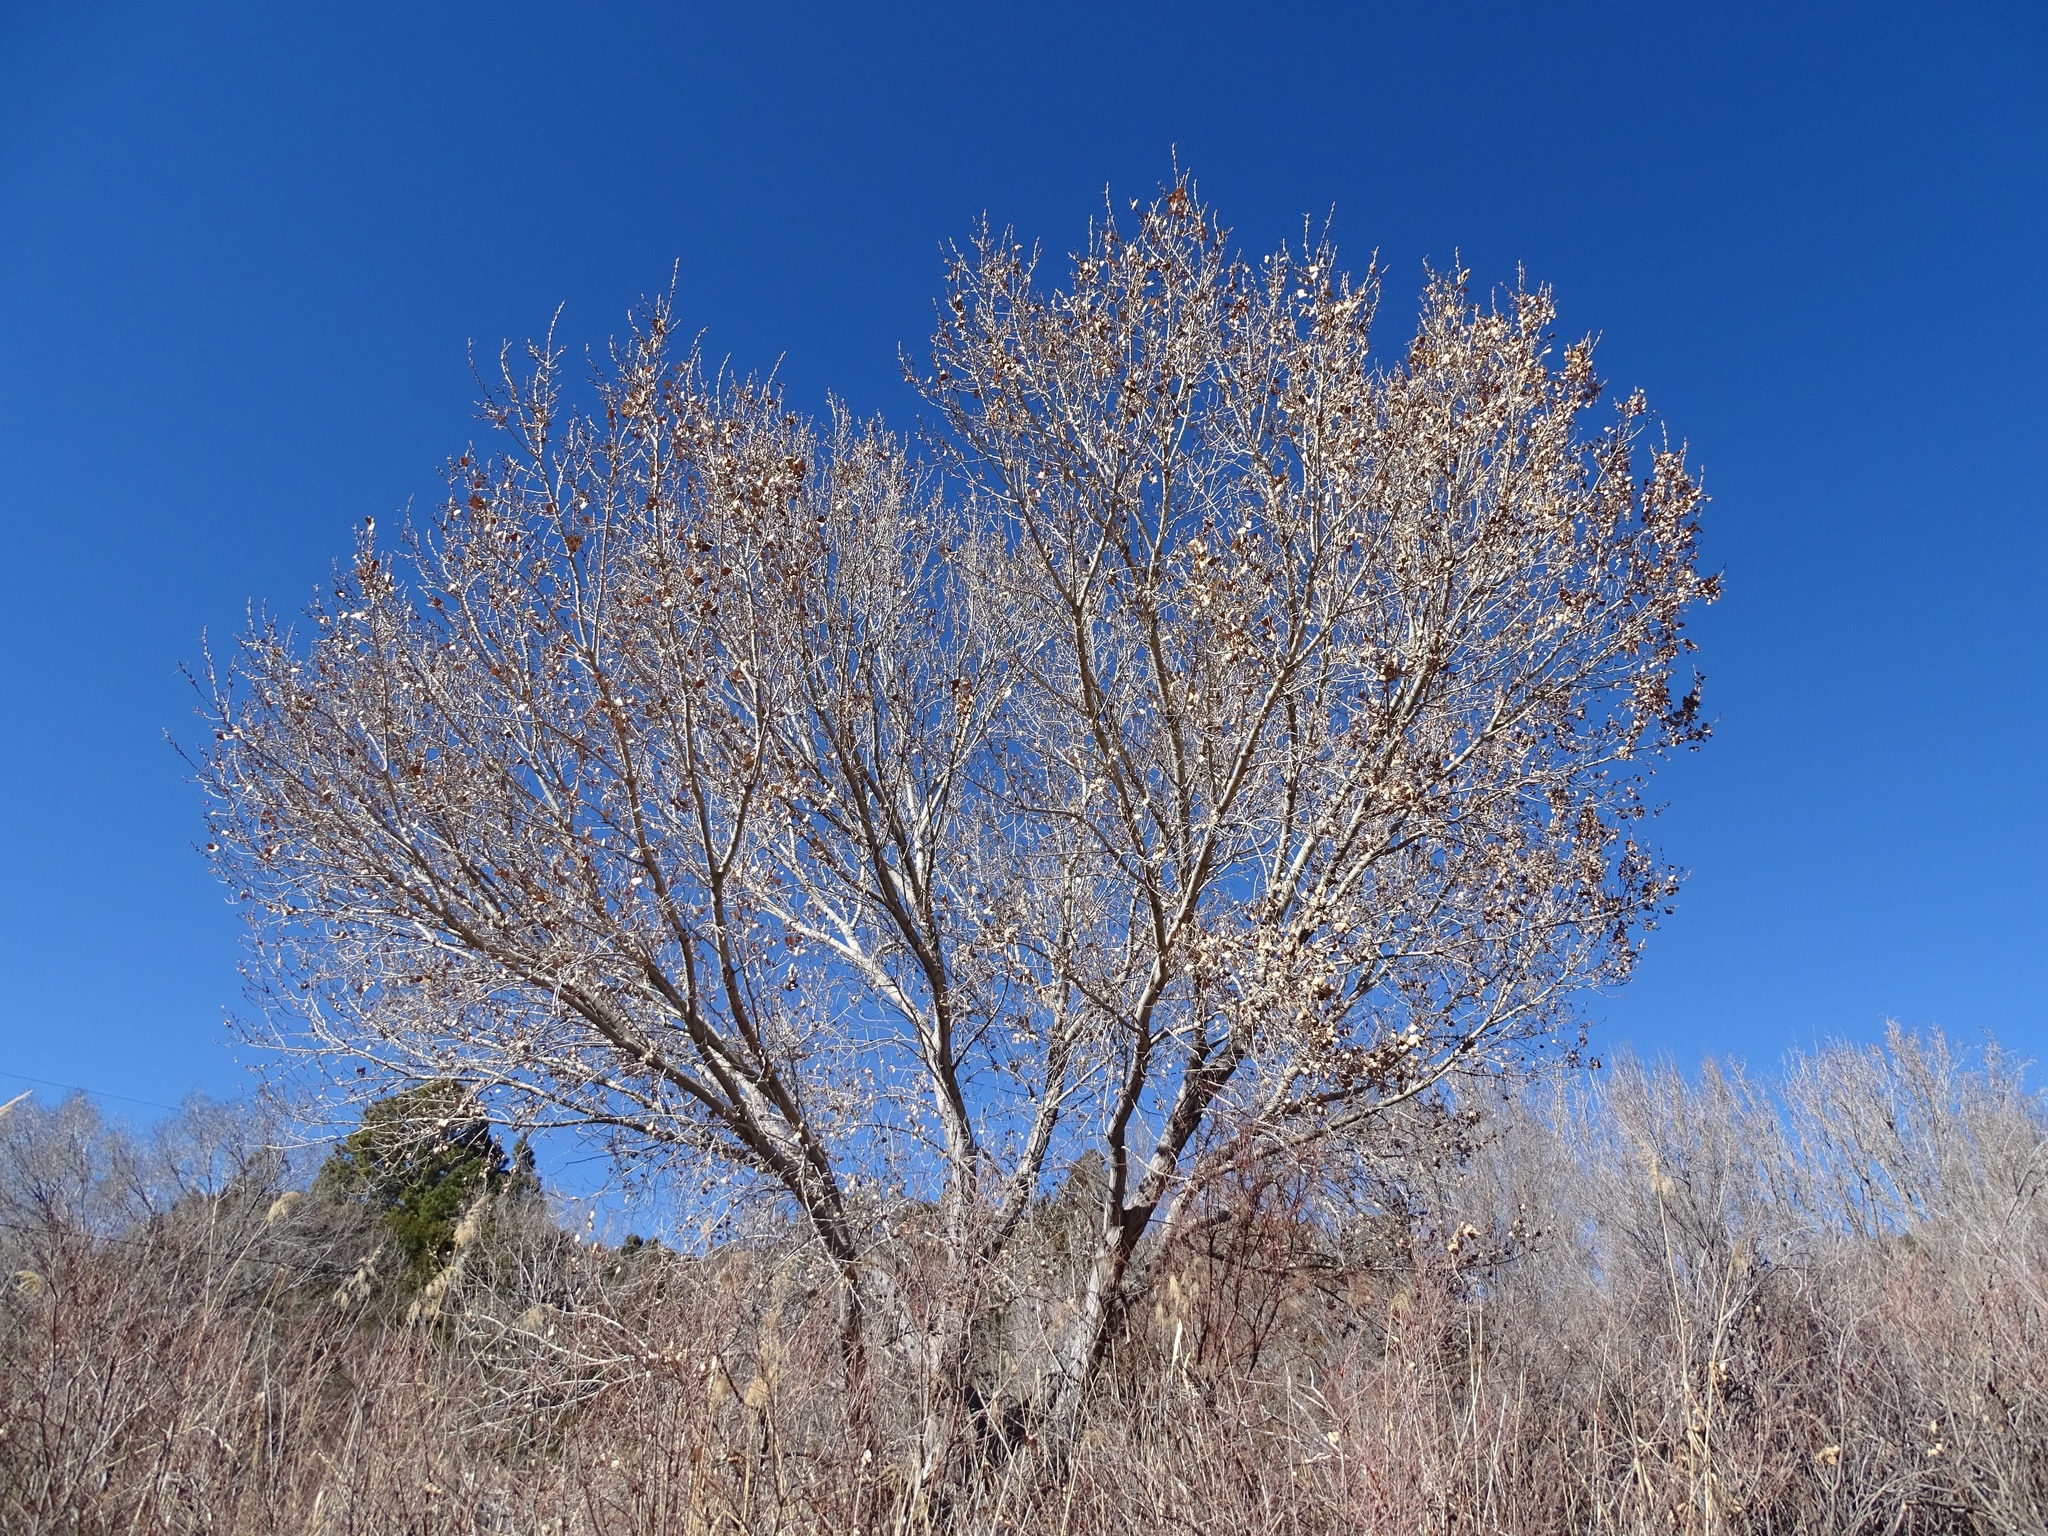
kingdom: Plantae
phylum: Tracheophyta
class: Magnoliopsida
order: Malpighiales
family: Salicaceae
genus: Populus
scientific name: Populus fremontii
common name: Fremont's cottonwood
